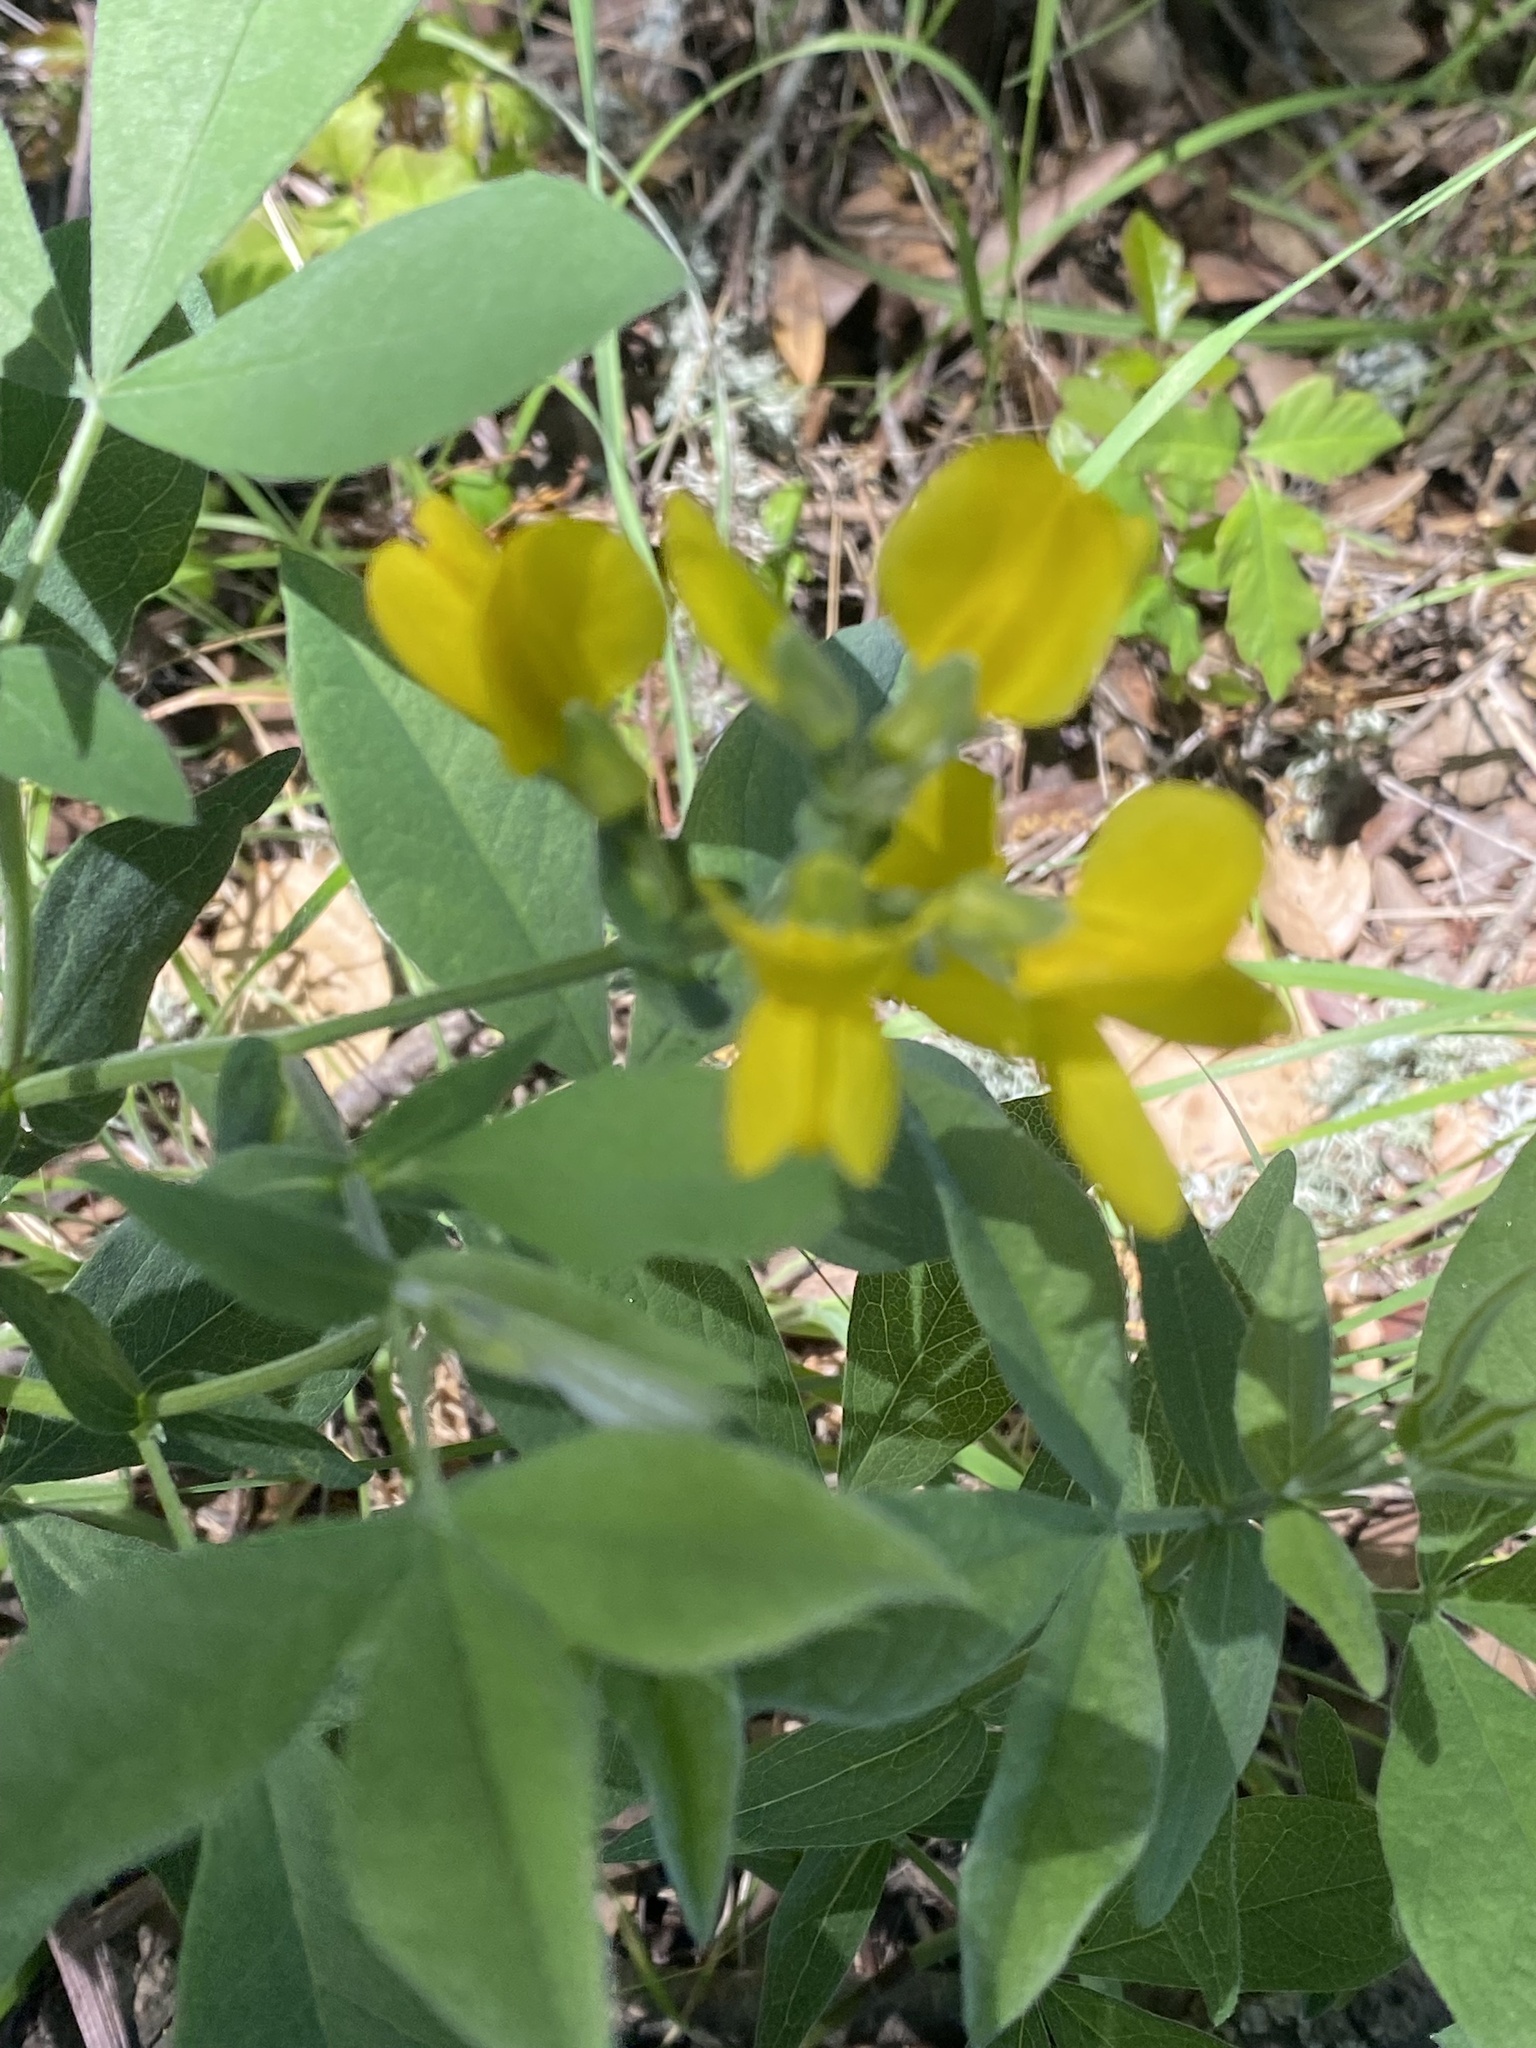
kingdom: Plantae
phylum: Tracheophyta
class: Magnoliopsida
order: Fabales
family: Fabaceae
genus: Thermopsis
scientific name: Thermopsis californica
